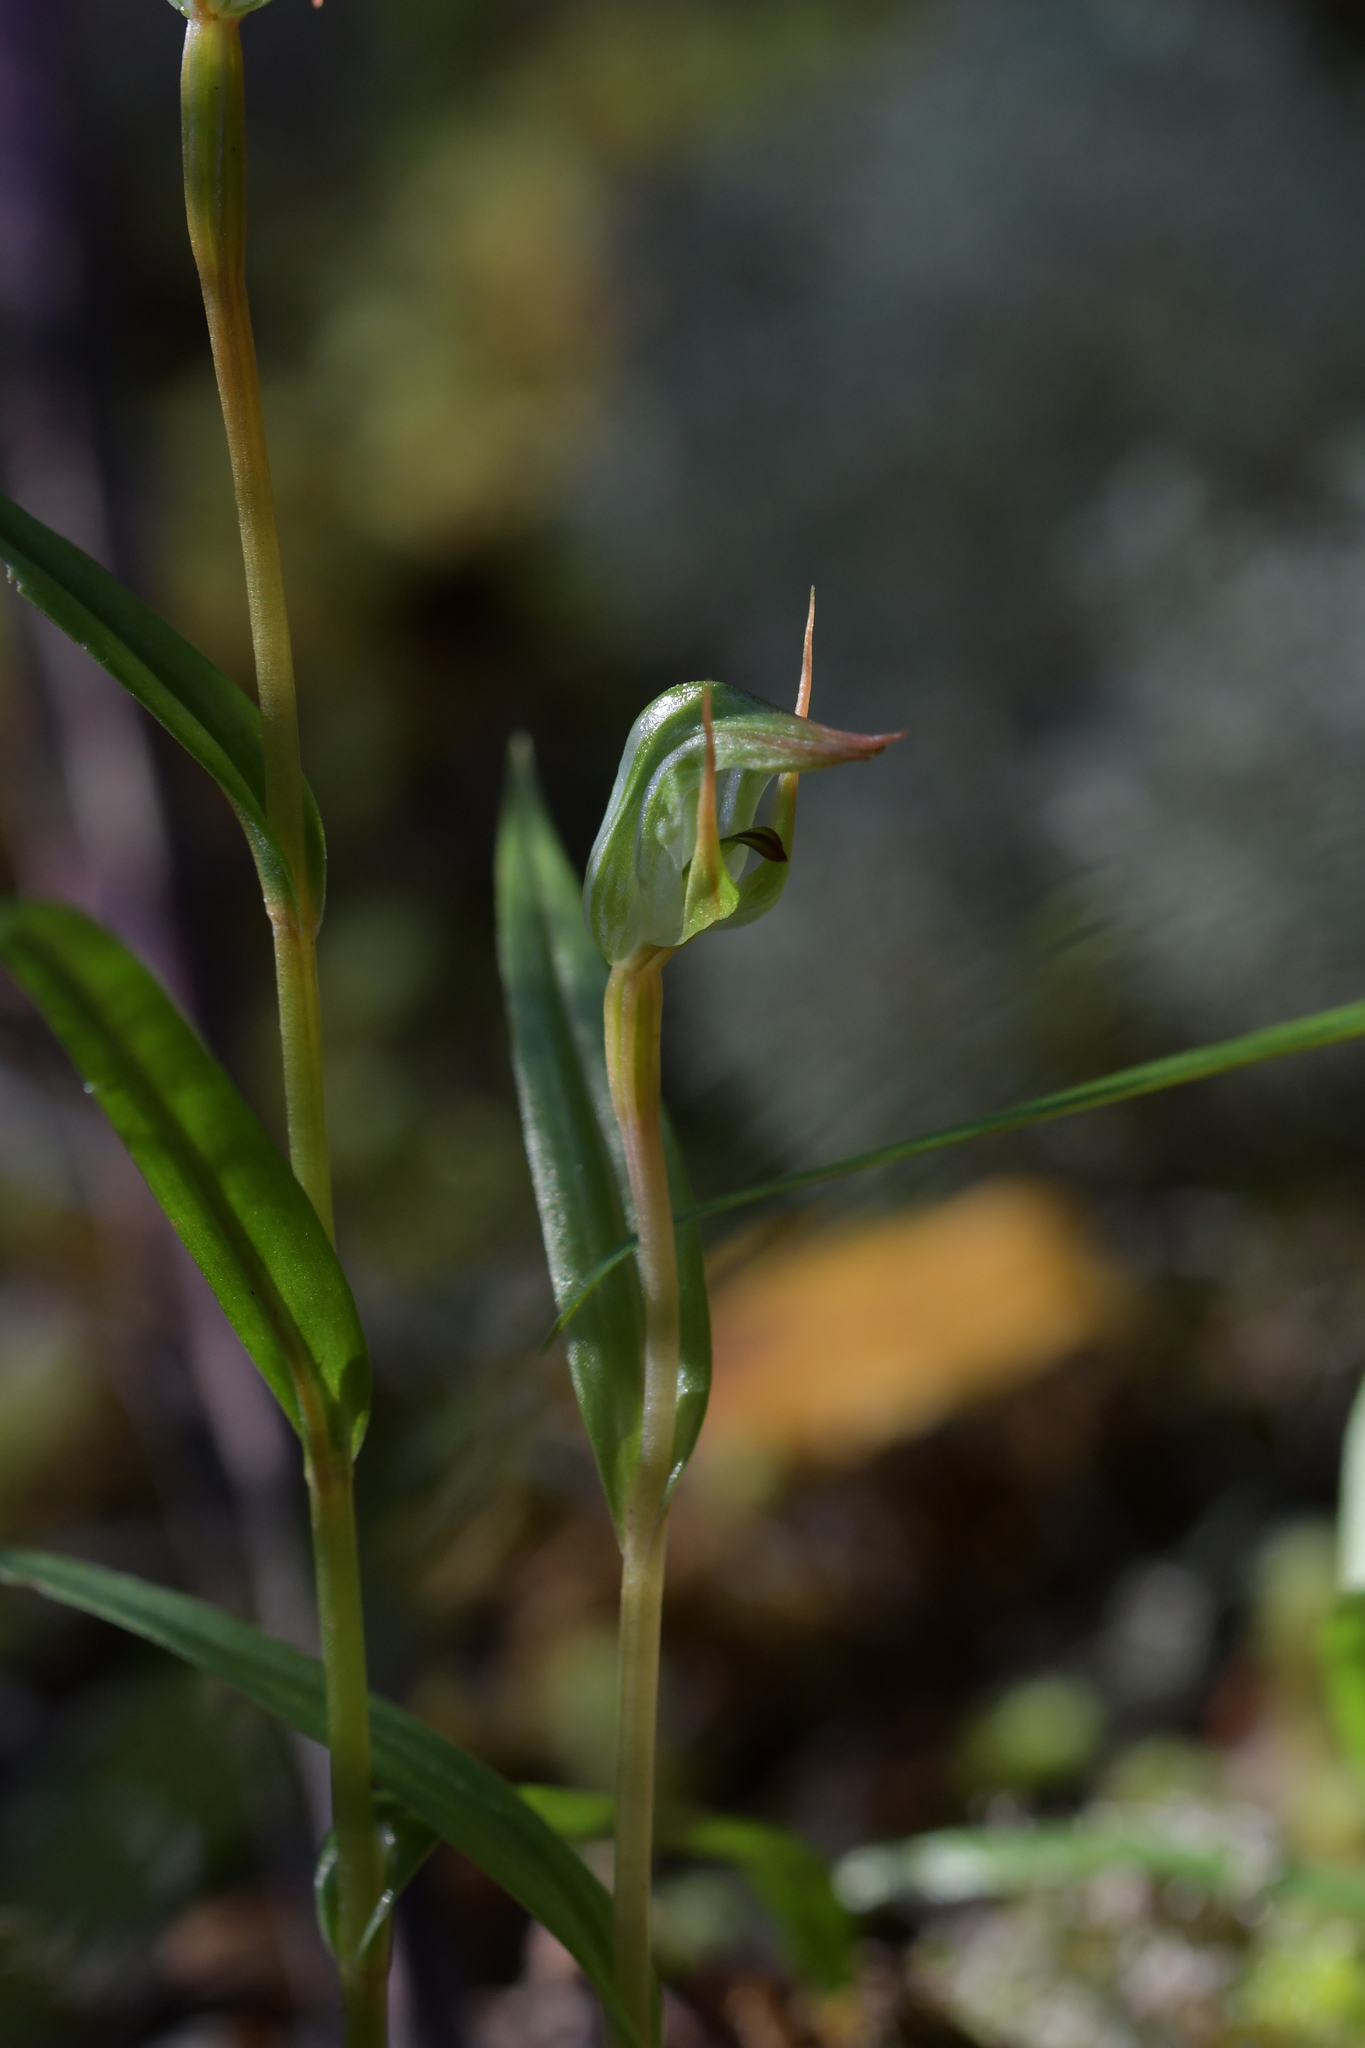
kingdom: Plantae
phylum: Tracheophyta
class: Liliopsida
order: Asparagales
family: Orchidaceae
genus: Pterostylis
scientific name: Pterostylis cernua
